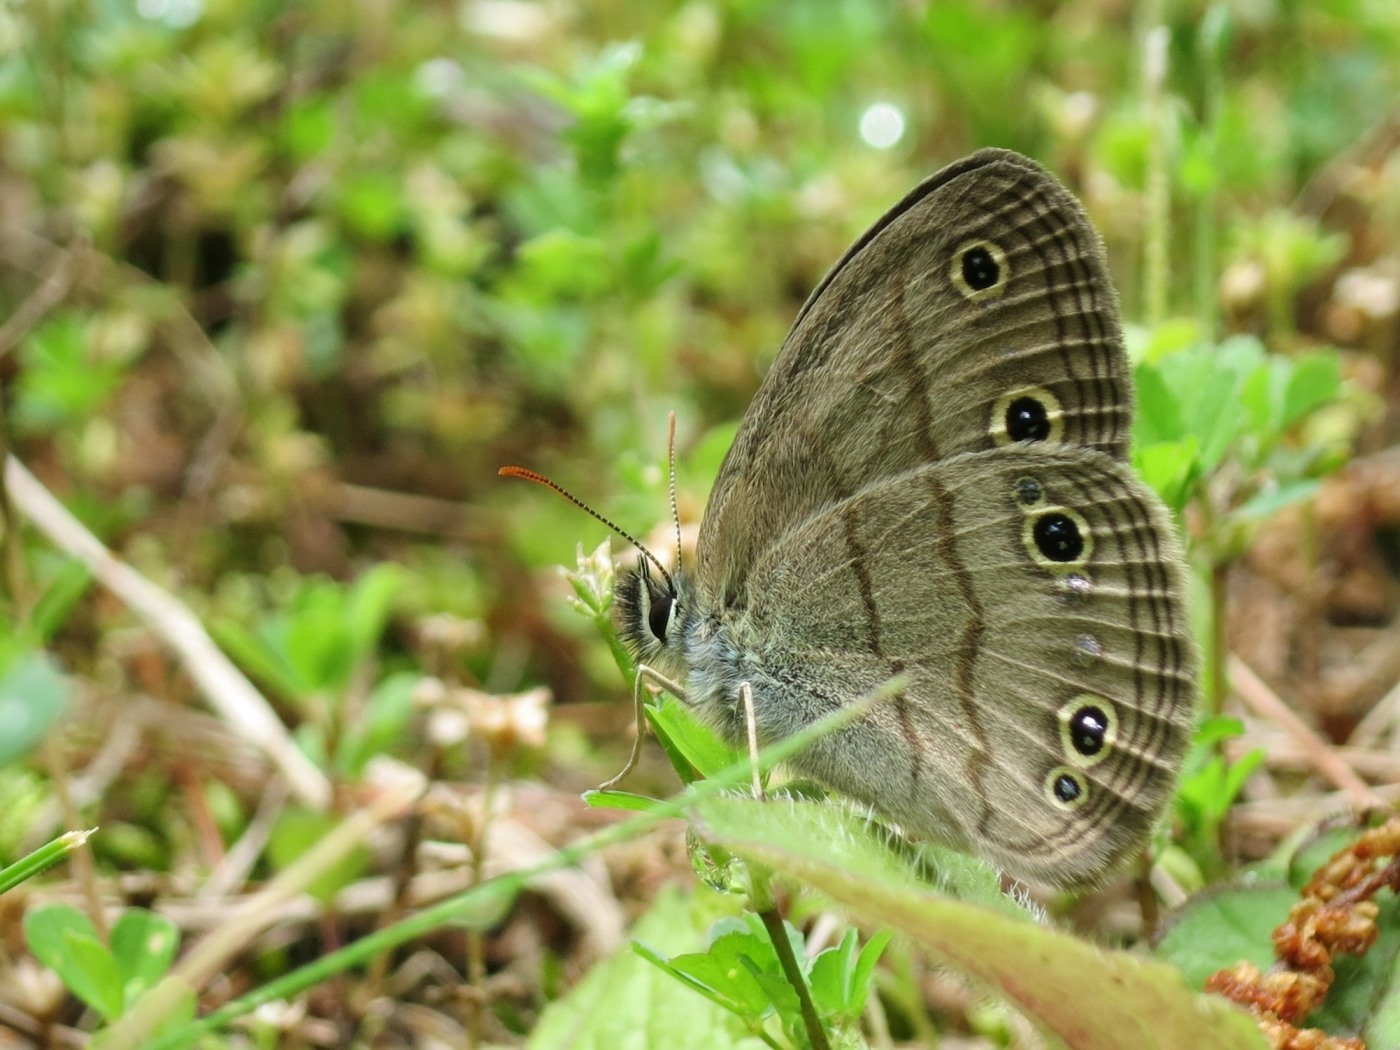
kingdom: Animalia
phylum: Arthropoda
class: Insecta
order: Lepidoptera
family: Nymphalidae
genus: Euptychia
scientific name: Euptychia cymela
